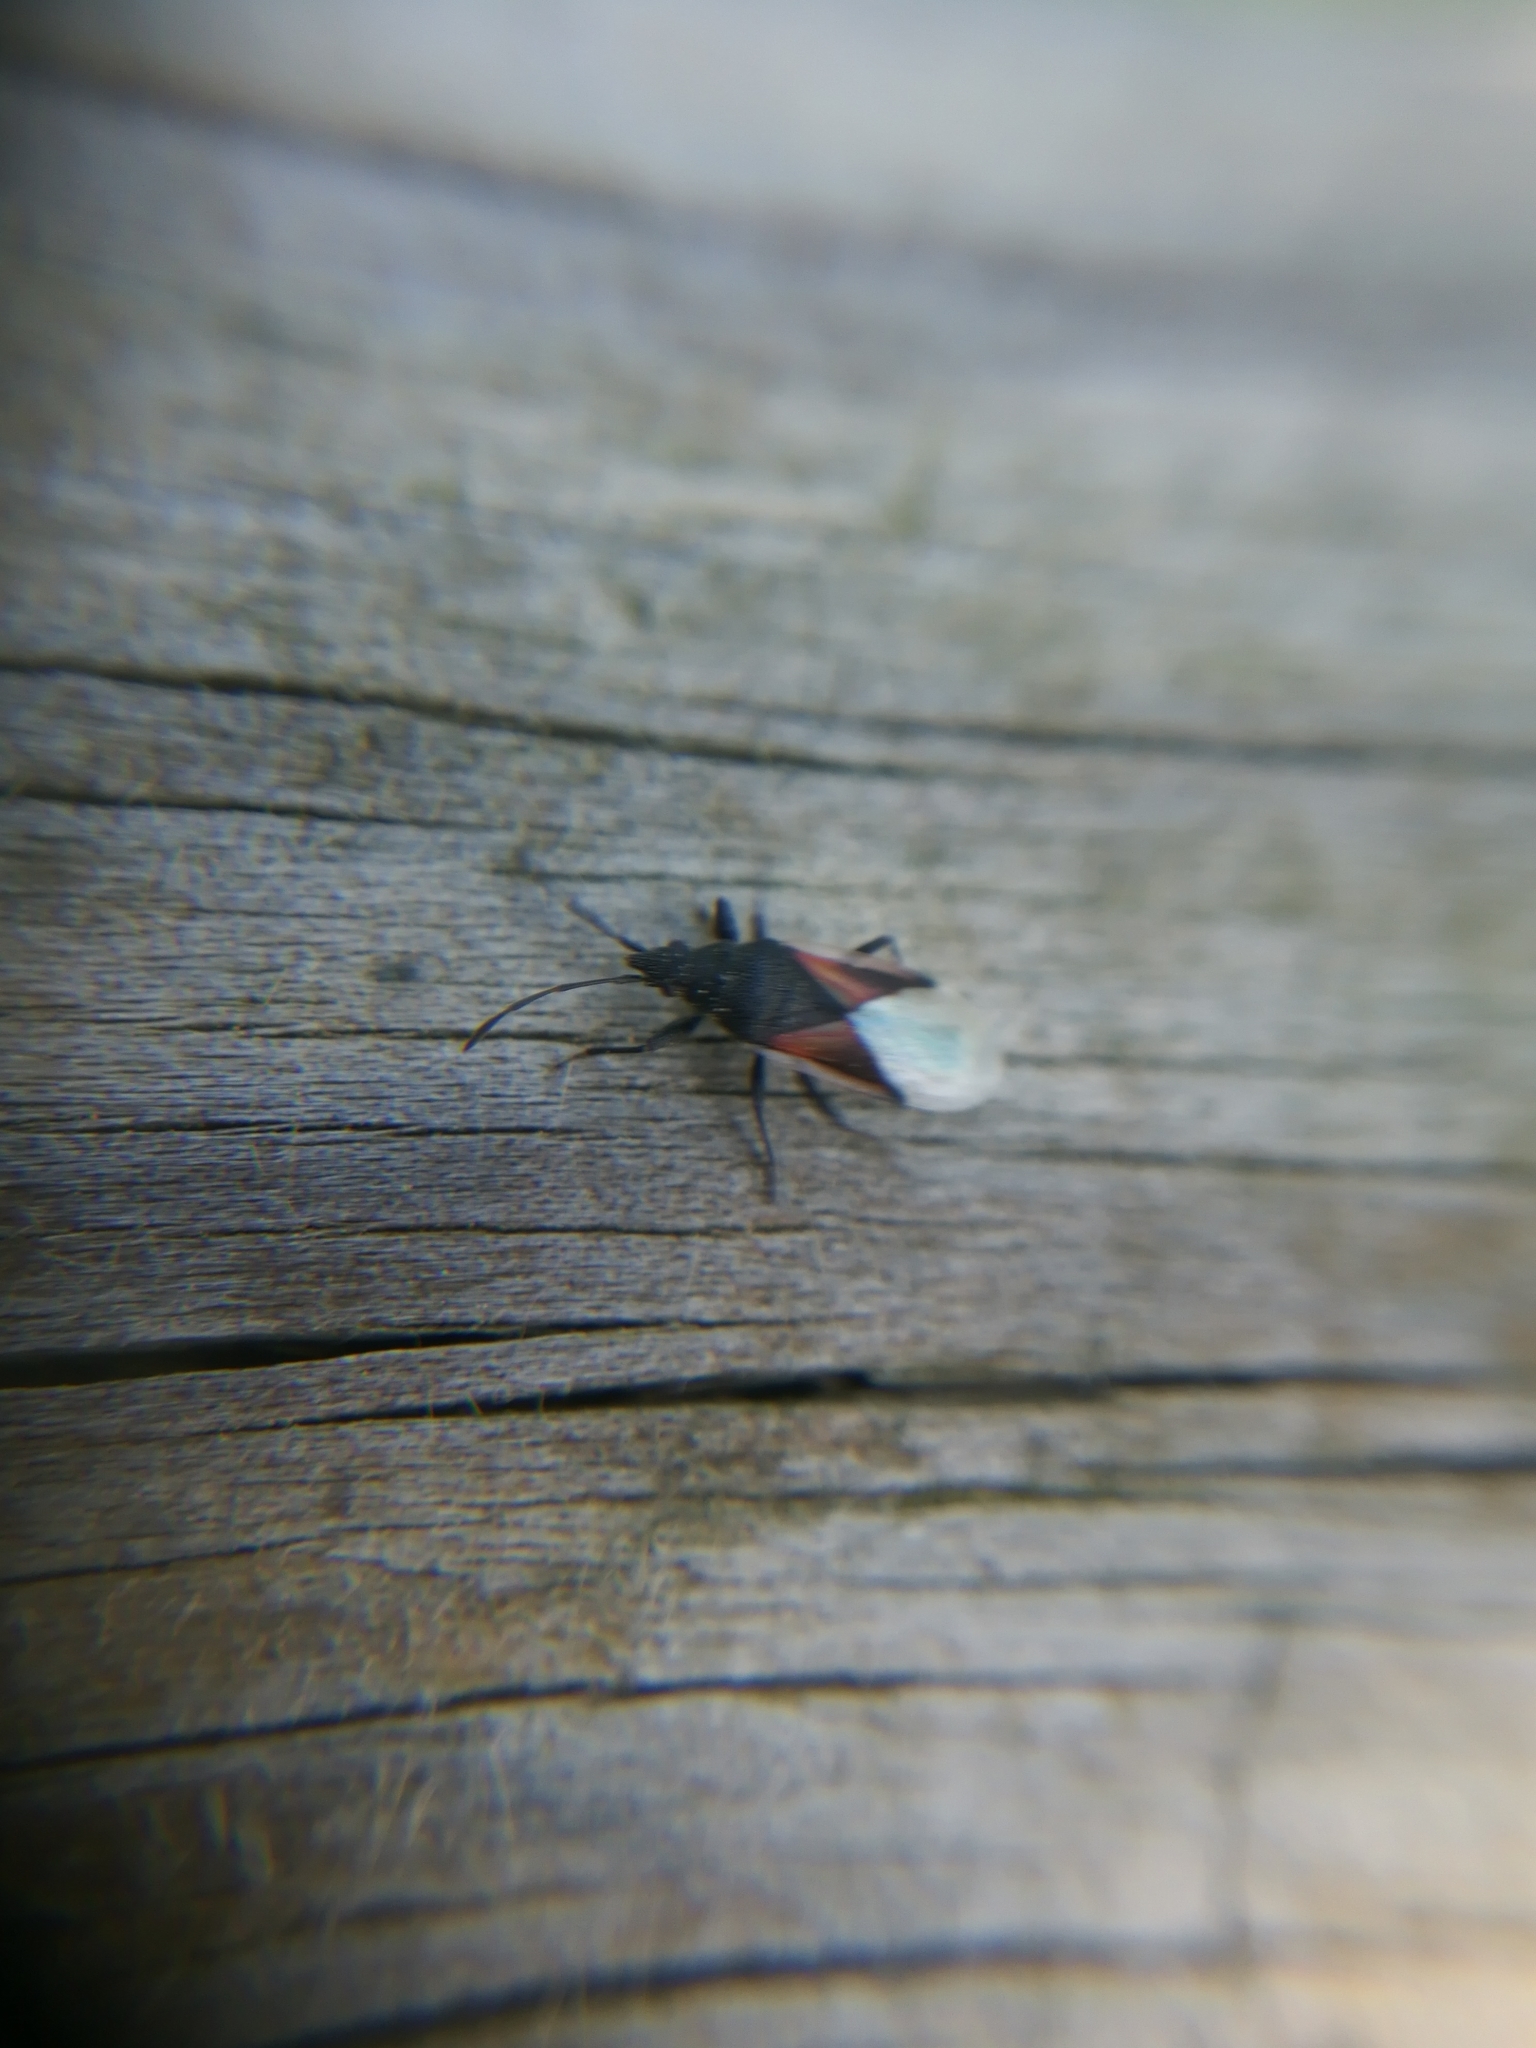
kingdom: Animalia
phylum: Arthropoda
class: Insecta
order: Hemiptera
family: Oxycarenidae
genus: Oxycarenus
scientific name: Oxycarenus lavaterae
